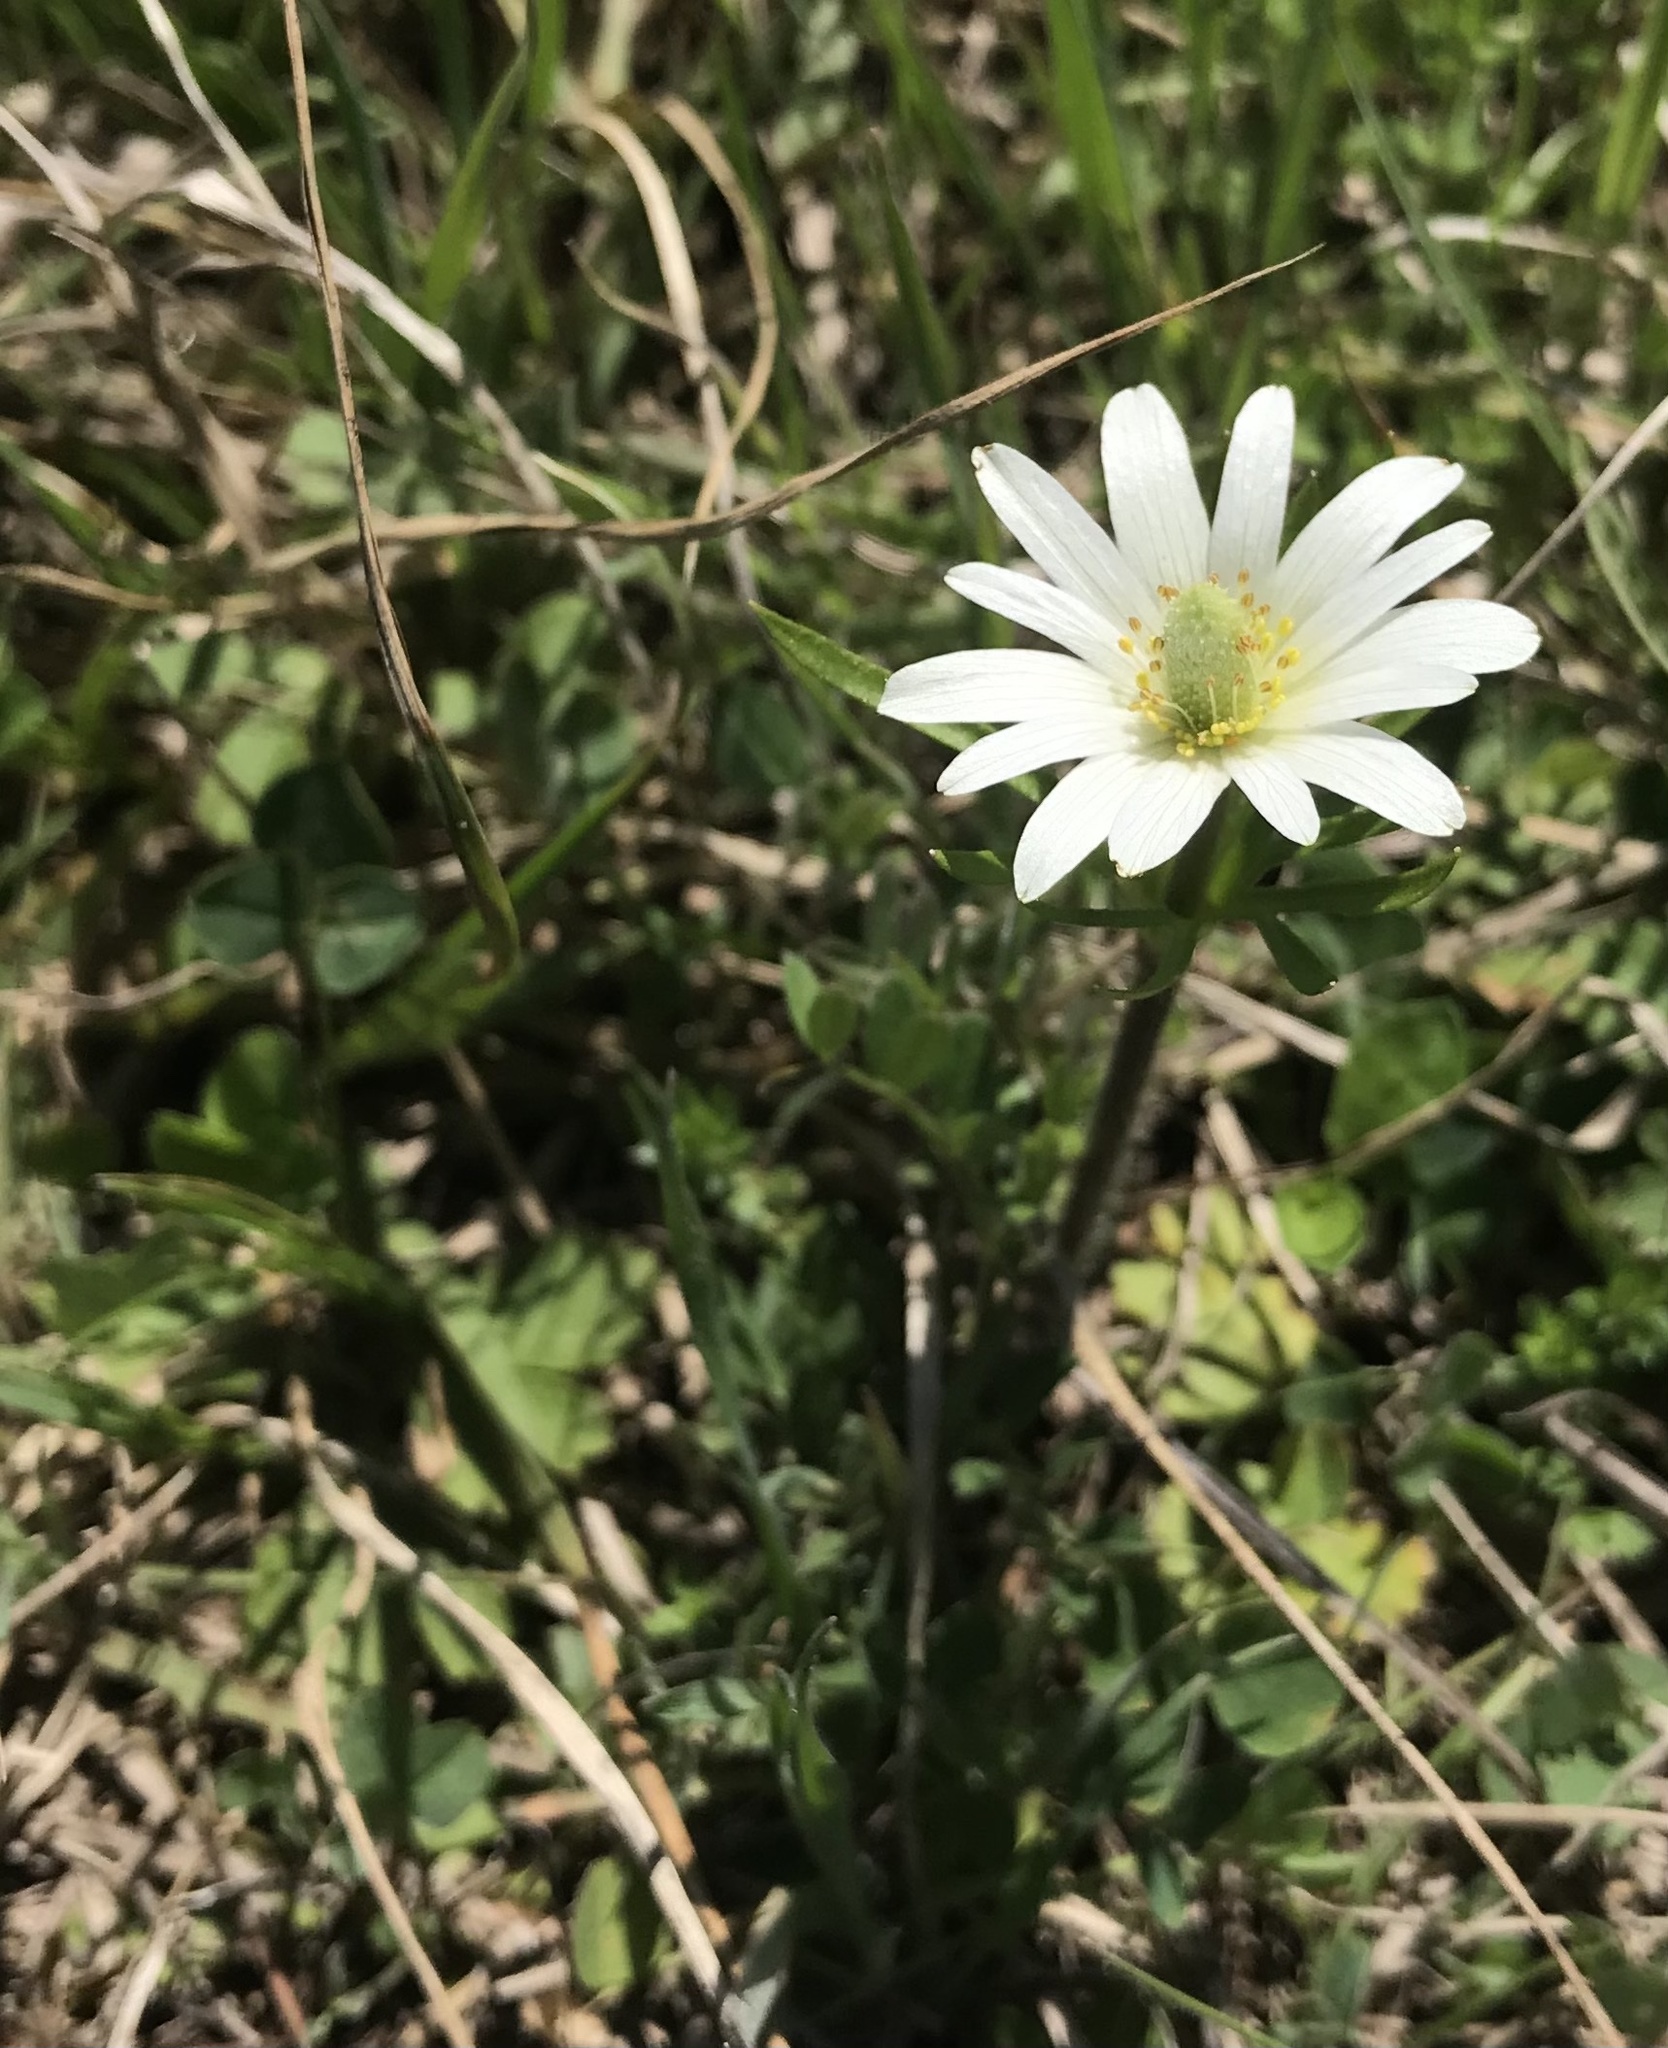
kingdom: Plantae
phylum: Tracheophyta
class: Magnoliopsida
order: Ranunculales
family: Ranunculaceae
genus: Anemone
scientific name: Anemone berlandieri
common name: Ten-petal anemone
